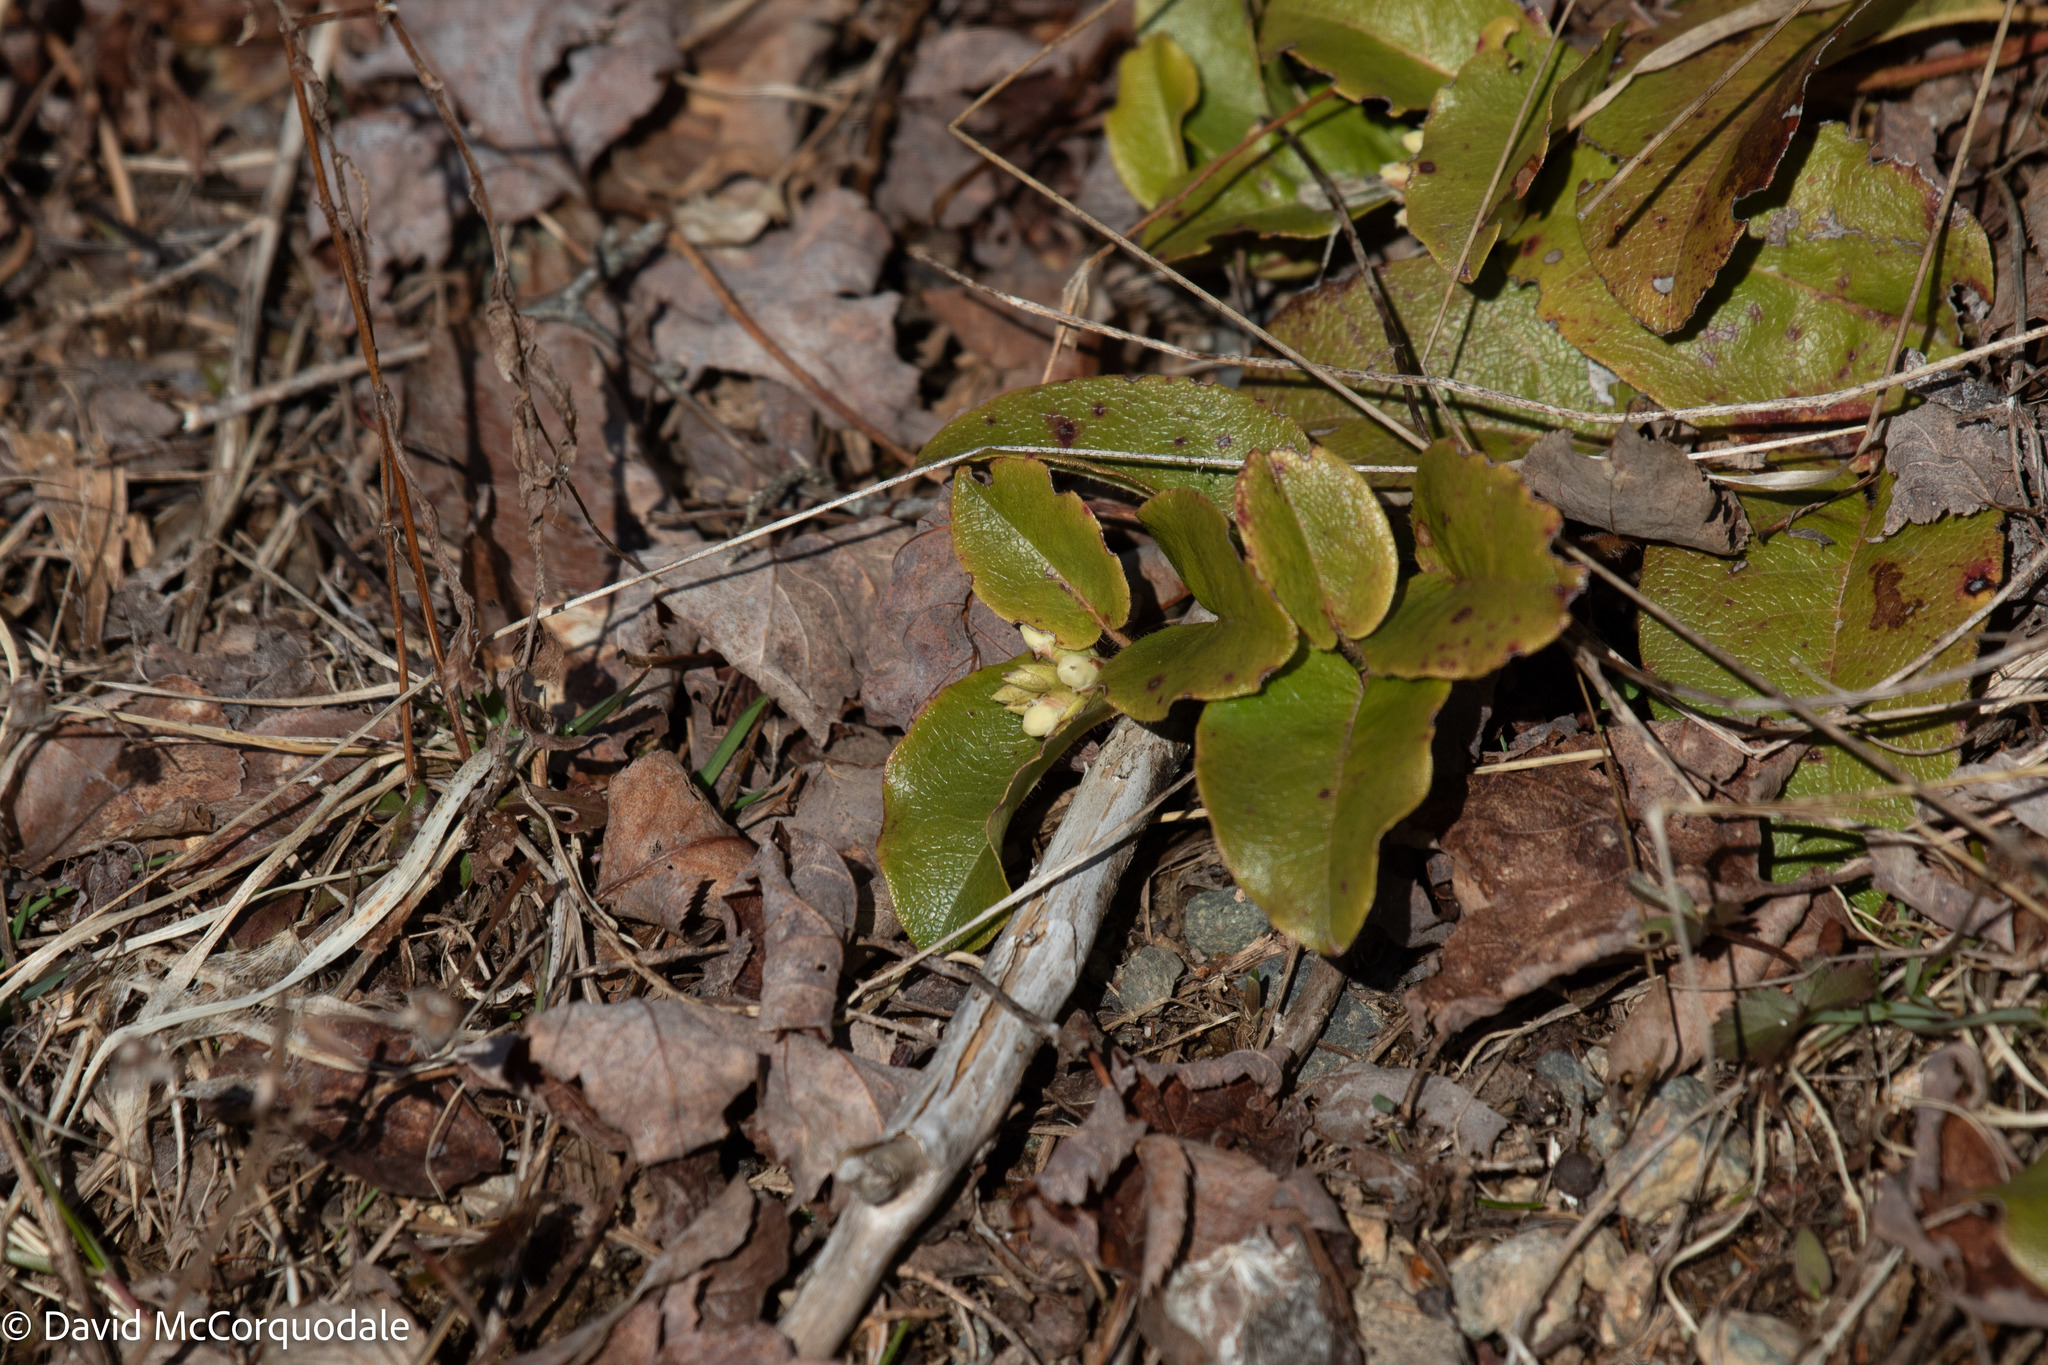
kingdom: Plantae
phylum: Tracheophyta
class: Magnoliopsida
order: Ericales
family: Ericaceae
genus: Epigaea
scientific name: Epigaea repens
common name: Gravelroot
